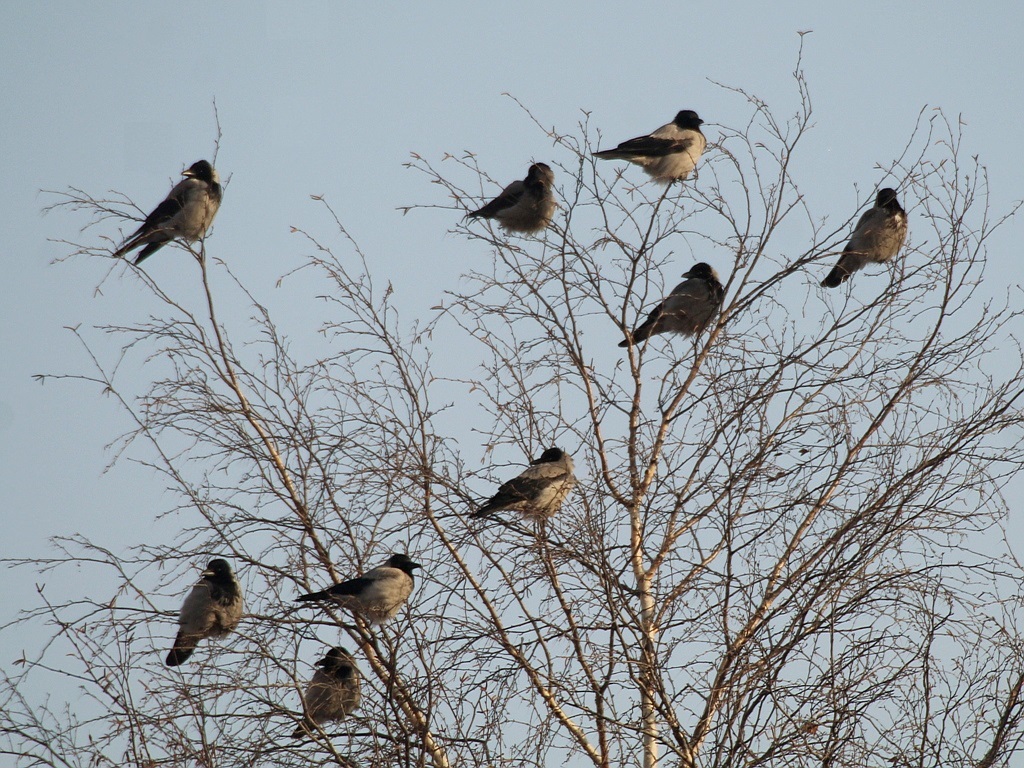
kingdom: Animalia
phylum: Chordata
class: Aves
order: Passeriformes
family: Corvidae
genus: Corvus
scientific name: Corvus cornix
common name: Hooded crow
